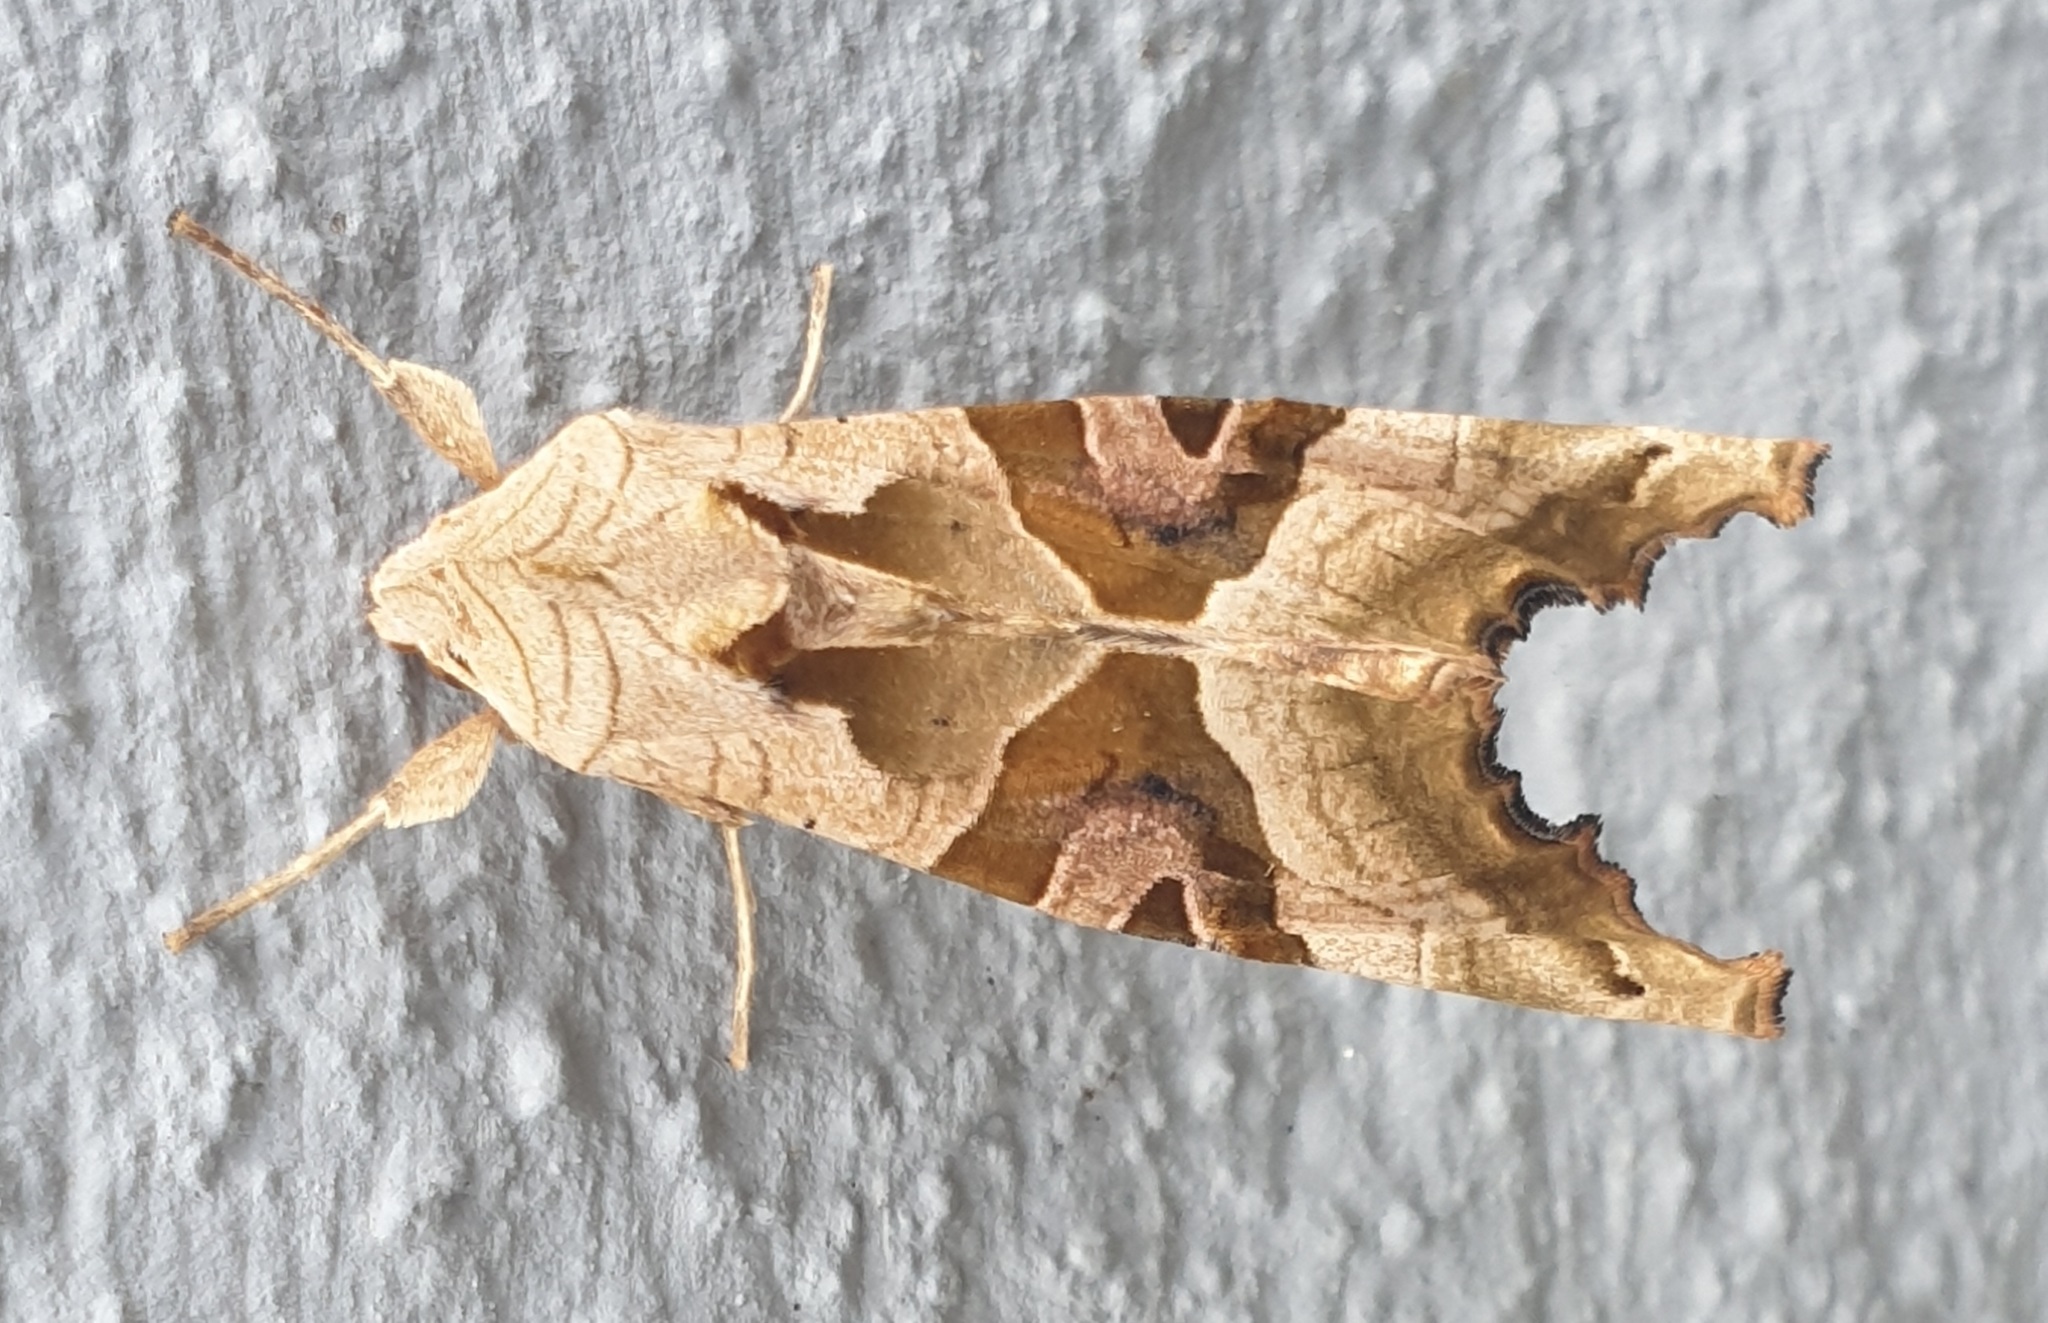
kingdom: Animalia
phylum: Arthropoda
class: Insecta
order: Lepidoptera
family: Noctuidae
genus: Phlogophora
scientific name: Phlogophora meticulosa
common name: Angle shades
